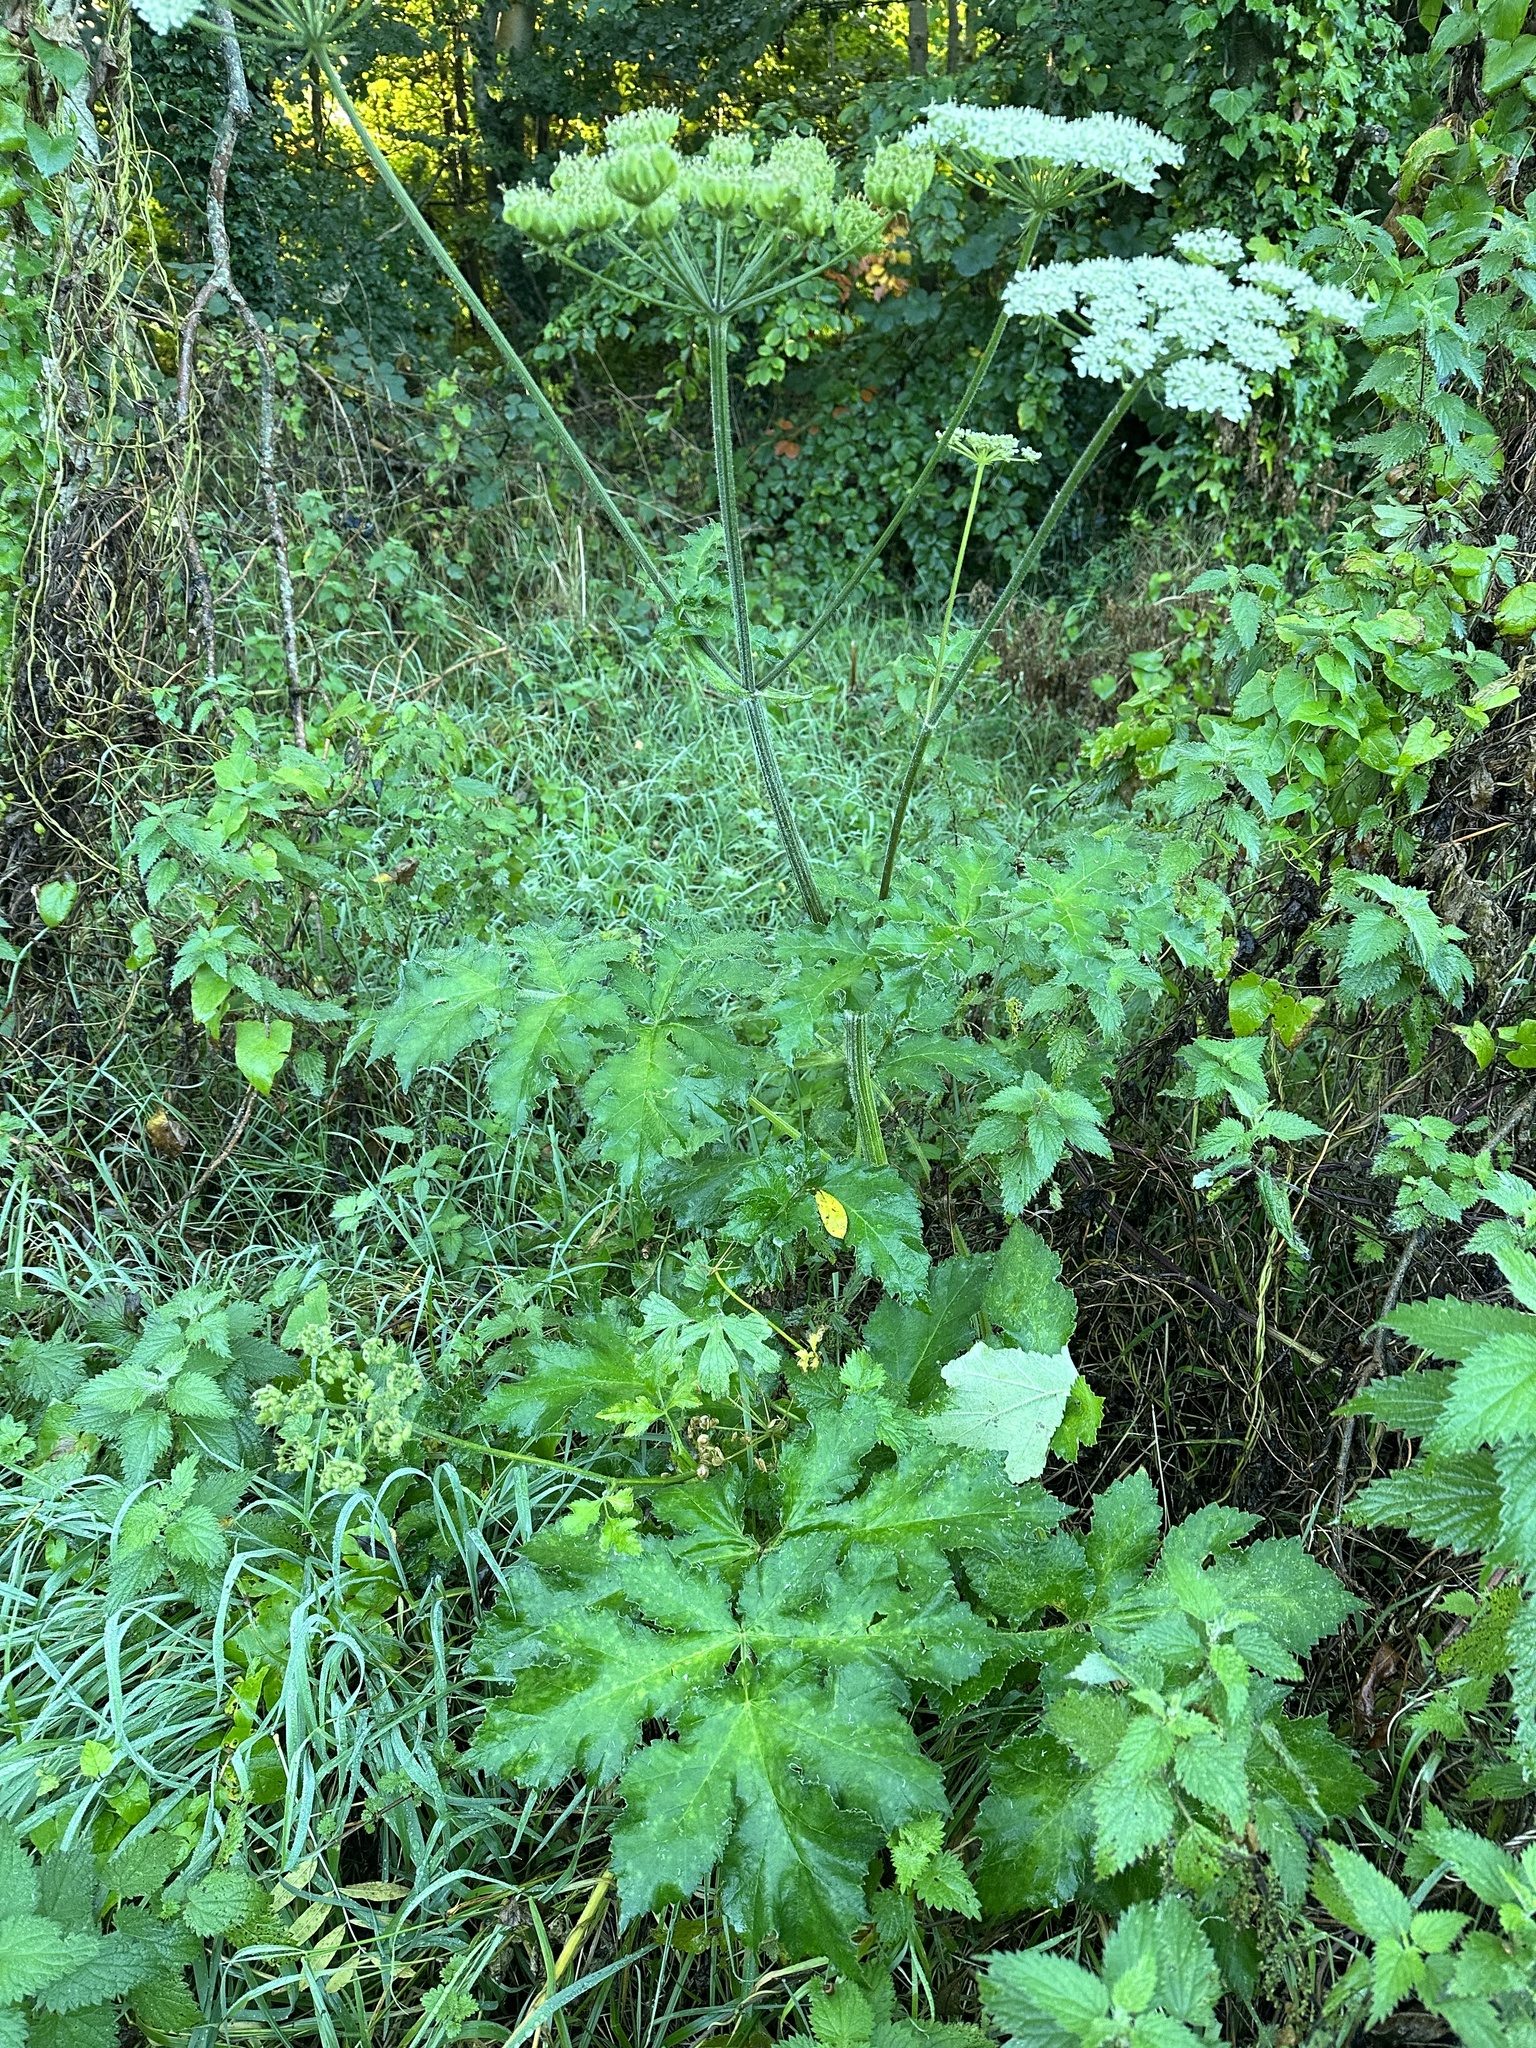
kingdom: Plantae
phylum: Tracheophyta
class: Magnoliopsida
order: Apiales
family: Apiaceae
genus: Heracleum
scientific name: Heracleum sphondylium
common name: Hogweed
